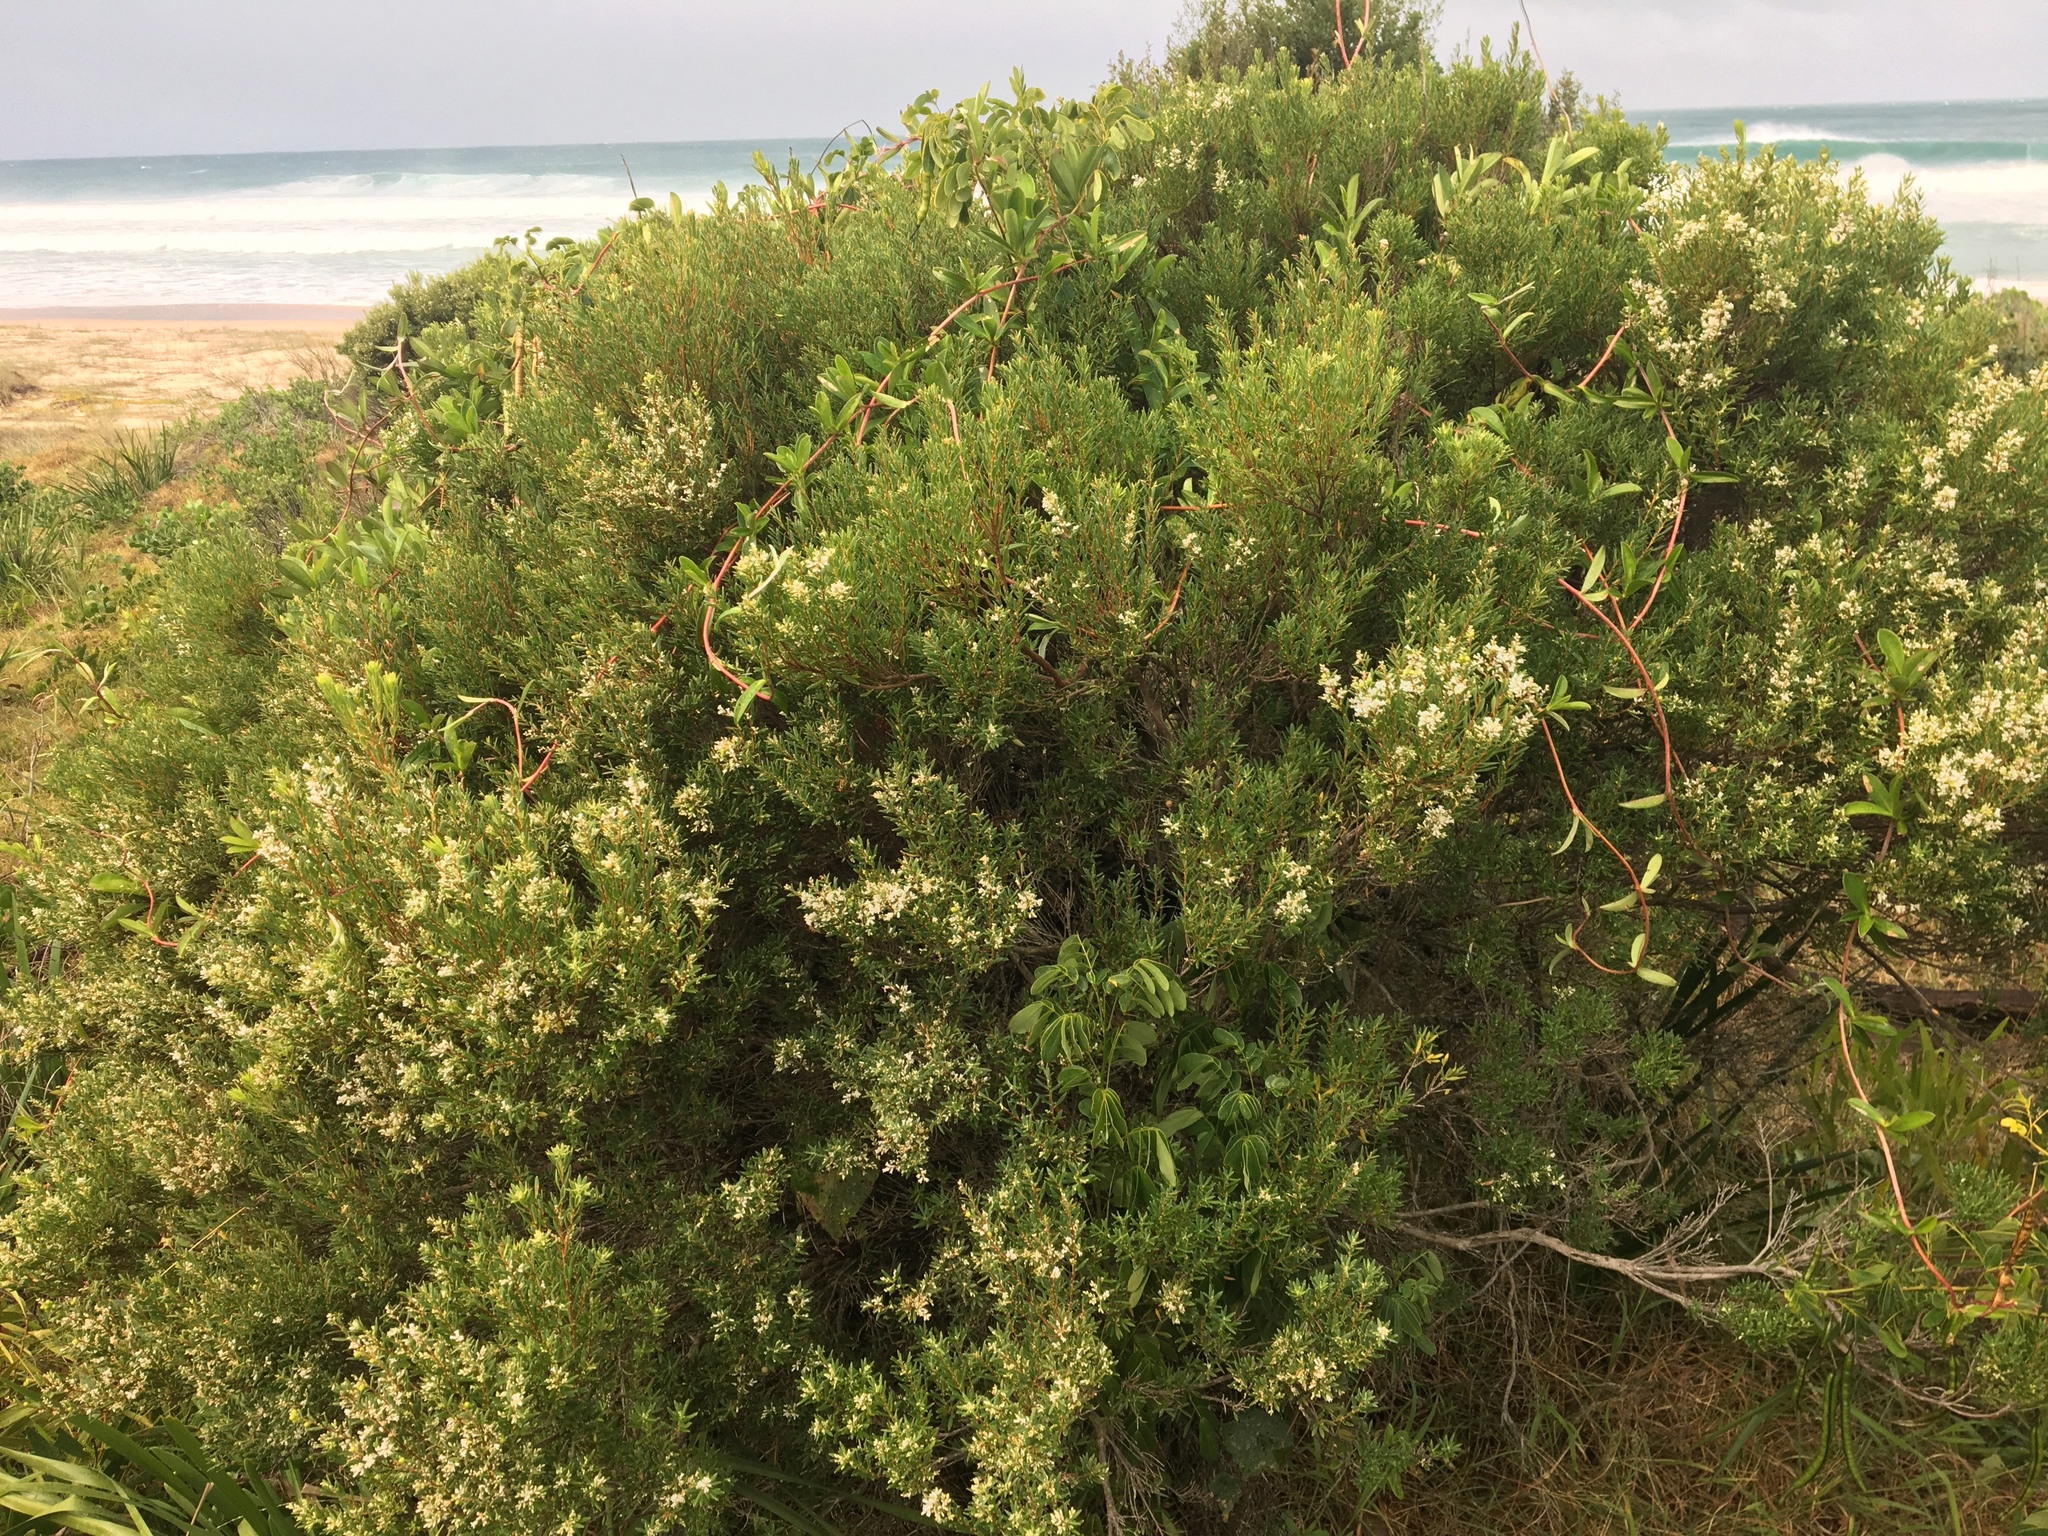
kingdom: Plantae
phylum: Tracheophyta
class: Magnoliopsida
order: Ericales
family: Ericaceae
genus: Leptecophylla
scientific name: Leptecophylla parvifolia
